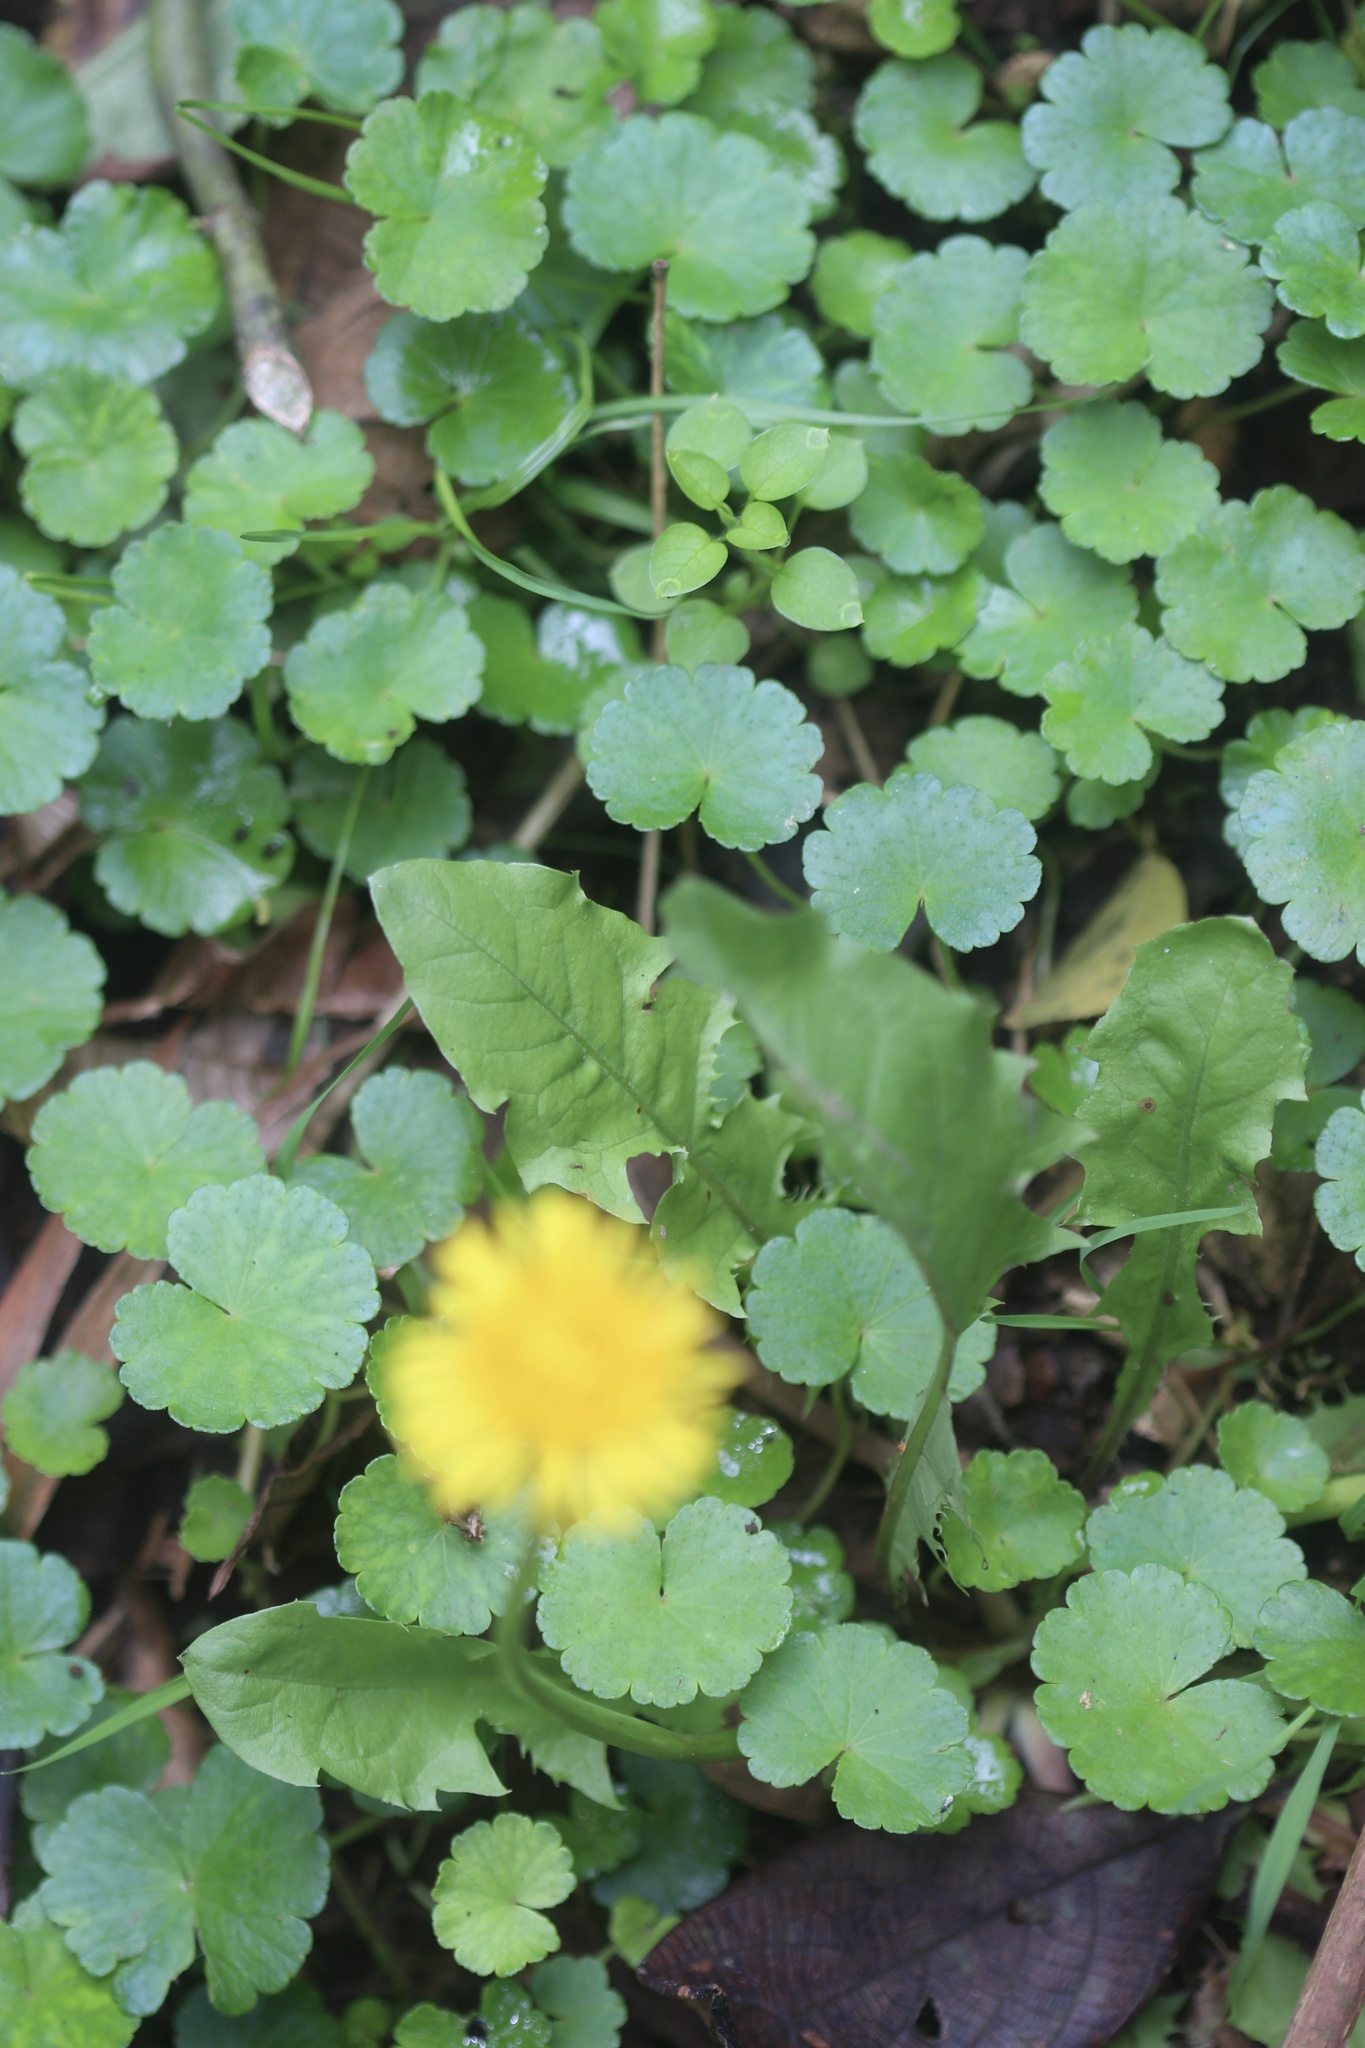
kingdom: Plantae
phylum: Tracheophyta
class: Magnoliopsida
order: Asterales
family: Asteraceae
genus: Taraxacum
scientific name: Taraxacum officinale
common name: Common dandelion
